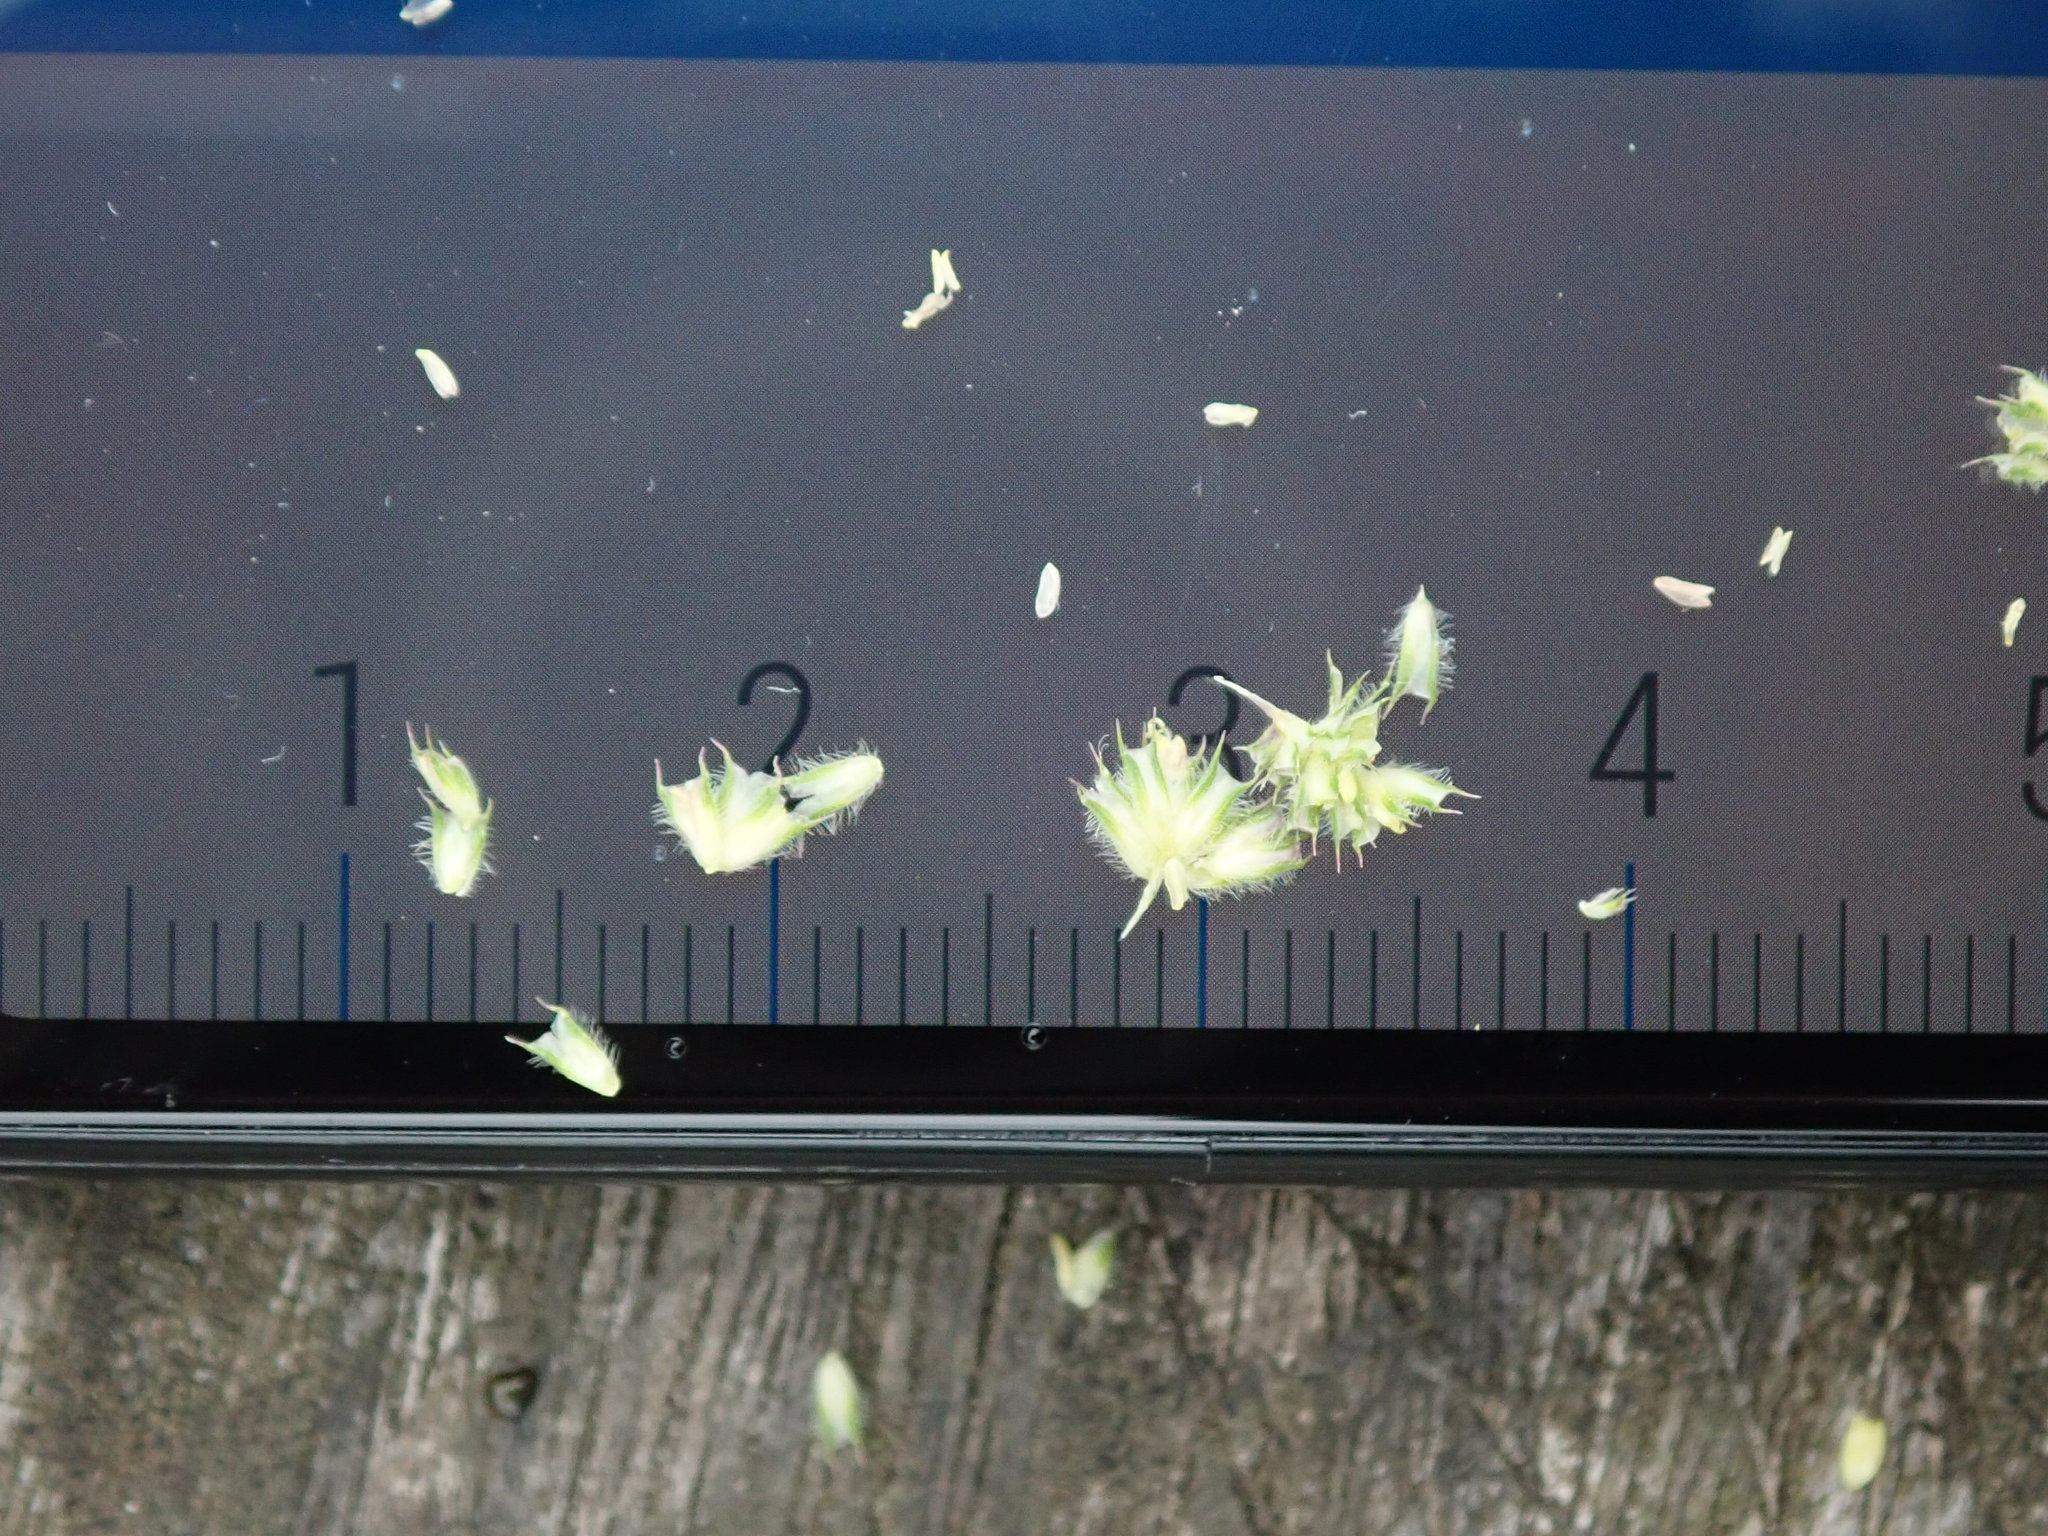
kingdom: Plantae
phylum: Tracheophyta
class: Liliopsida
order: Poales
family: Poaceae
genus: Phleum
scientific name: Phleum bertolonii
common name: Smaller cat's-tail
